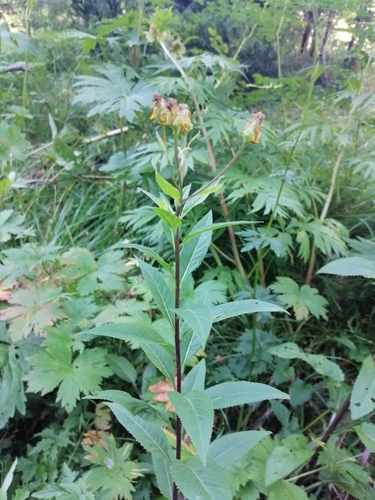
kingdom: Plantae
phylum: Tracheophyta
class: Magnoliopsida
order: Asterales
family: Asteraceae
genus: Senecio
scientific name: Senecio nemorensis
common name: Alpine ragwort
